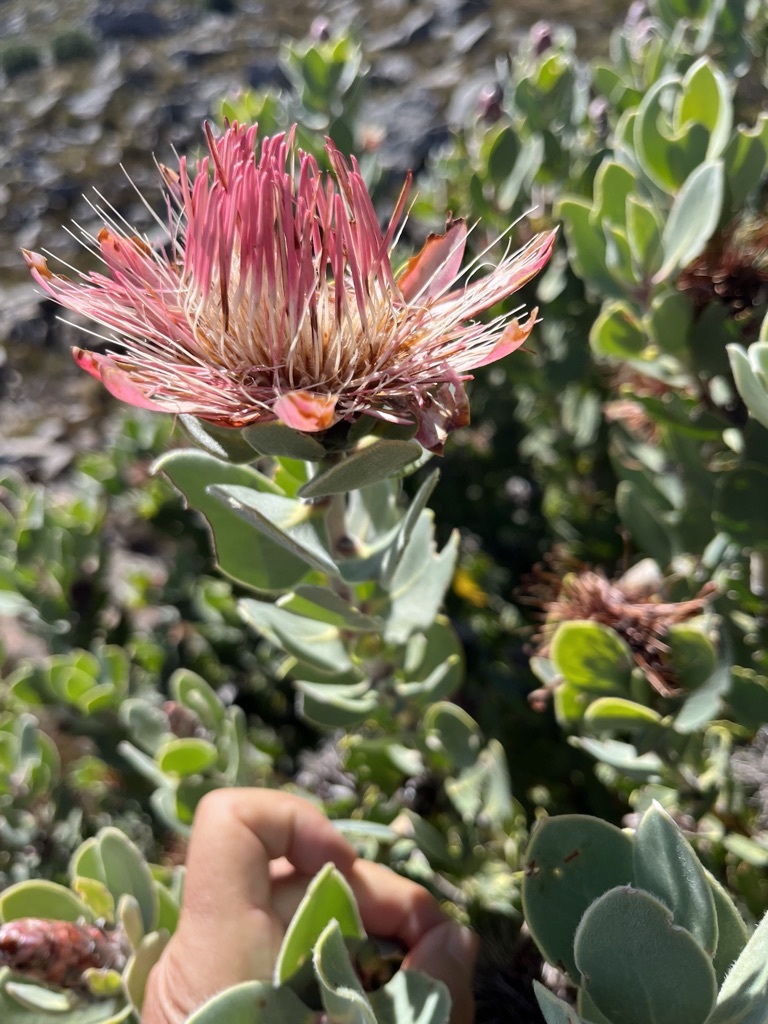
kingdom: Plantae
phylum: Tracheophyta
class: Magnoliopsida
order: Proteales
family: Proteaceae
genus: Protea
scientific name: Protea punctata
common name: Water sugarbush
